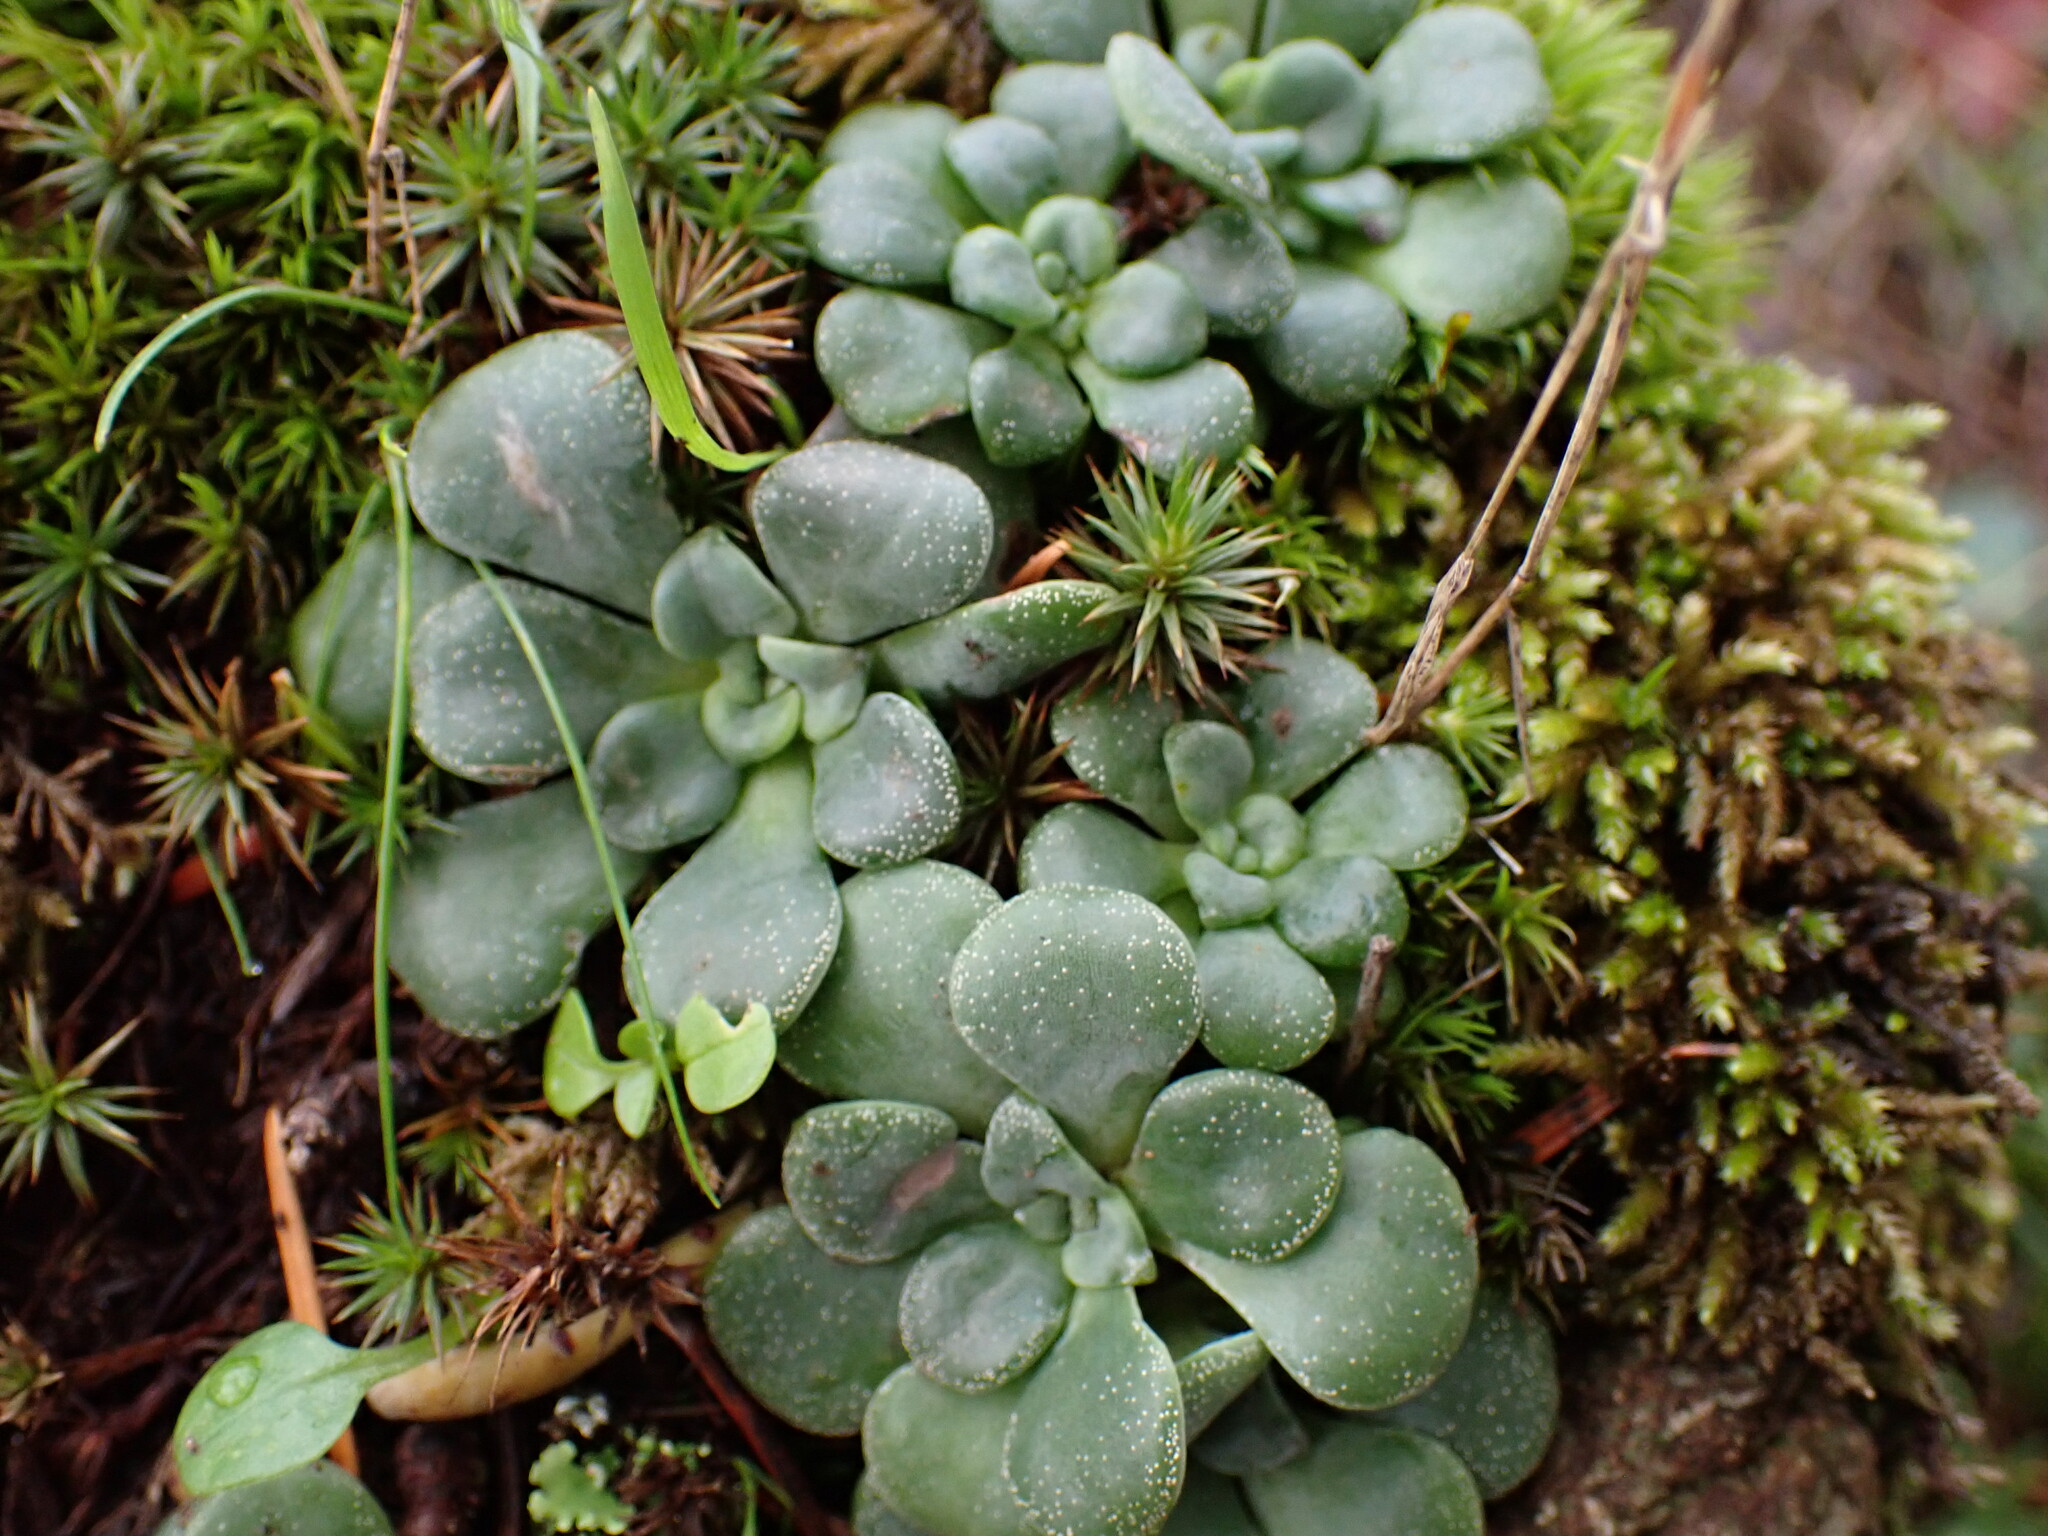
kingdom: Plantae
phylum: Tracheophyta
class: Magnoliopsida
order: Saxifragales
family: Crassulaceae
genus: Sedum
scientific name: Sedum spathulifolium
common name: Colorado stonecrop
